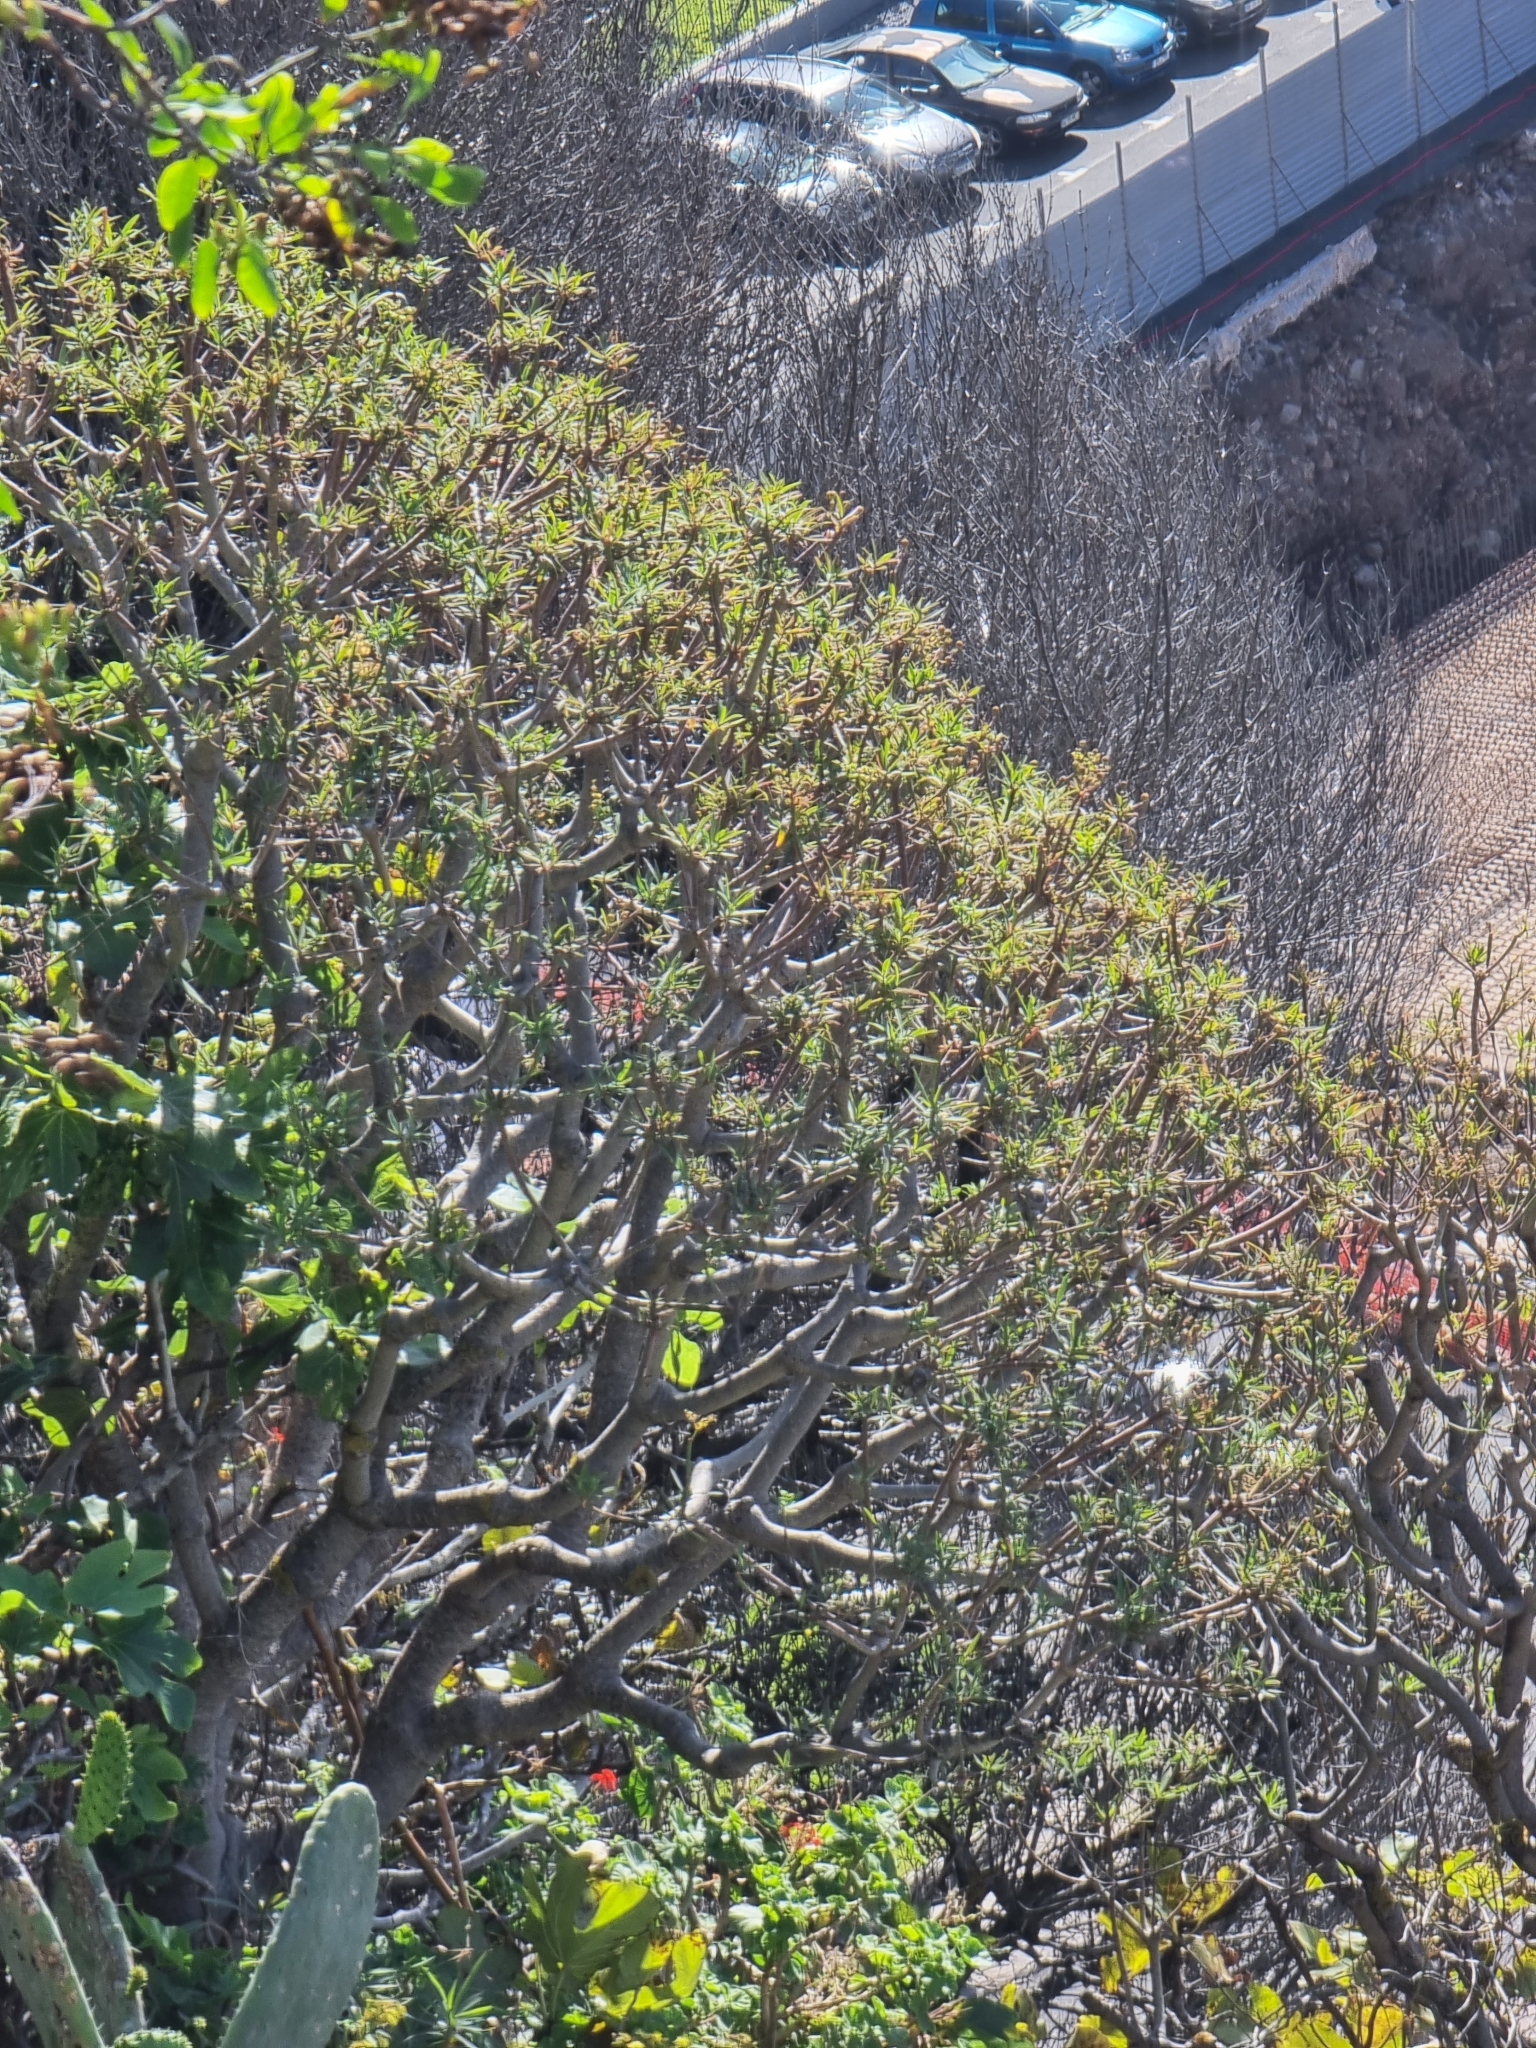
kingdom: Plantae
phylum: Tracheophyta
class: Magnoliopsida
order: Malpighiales
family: Euphorbiaceae
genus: Euphorbia
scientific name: Euphorbia piscatoria
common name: Fish-stunning spurge
